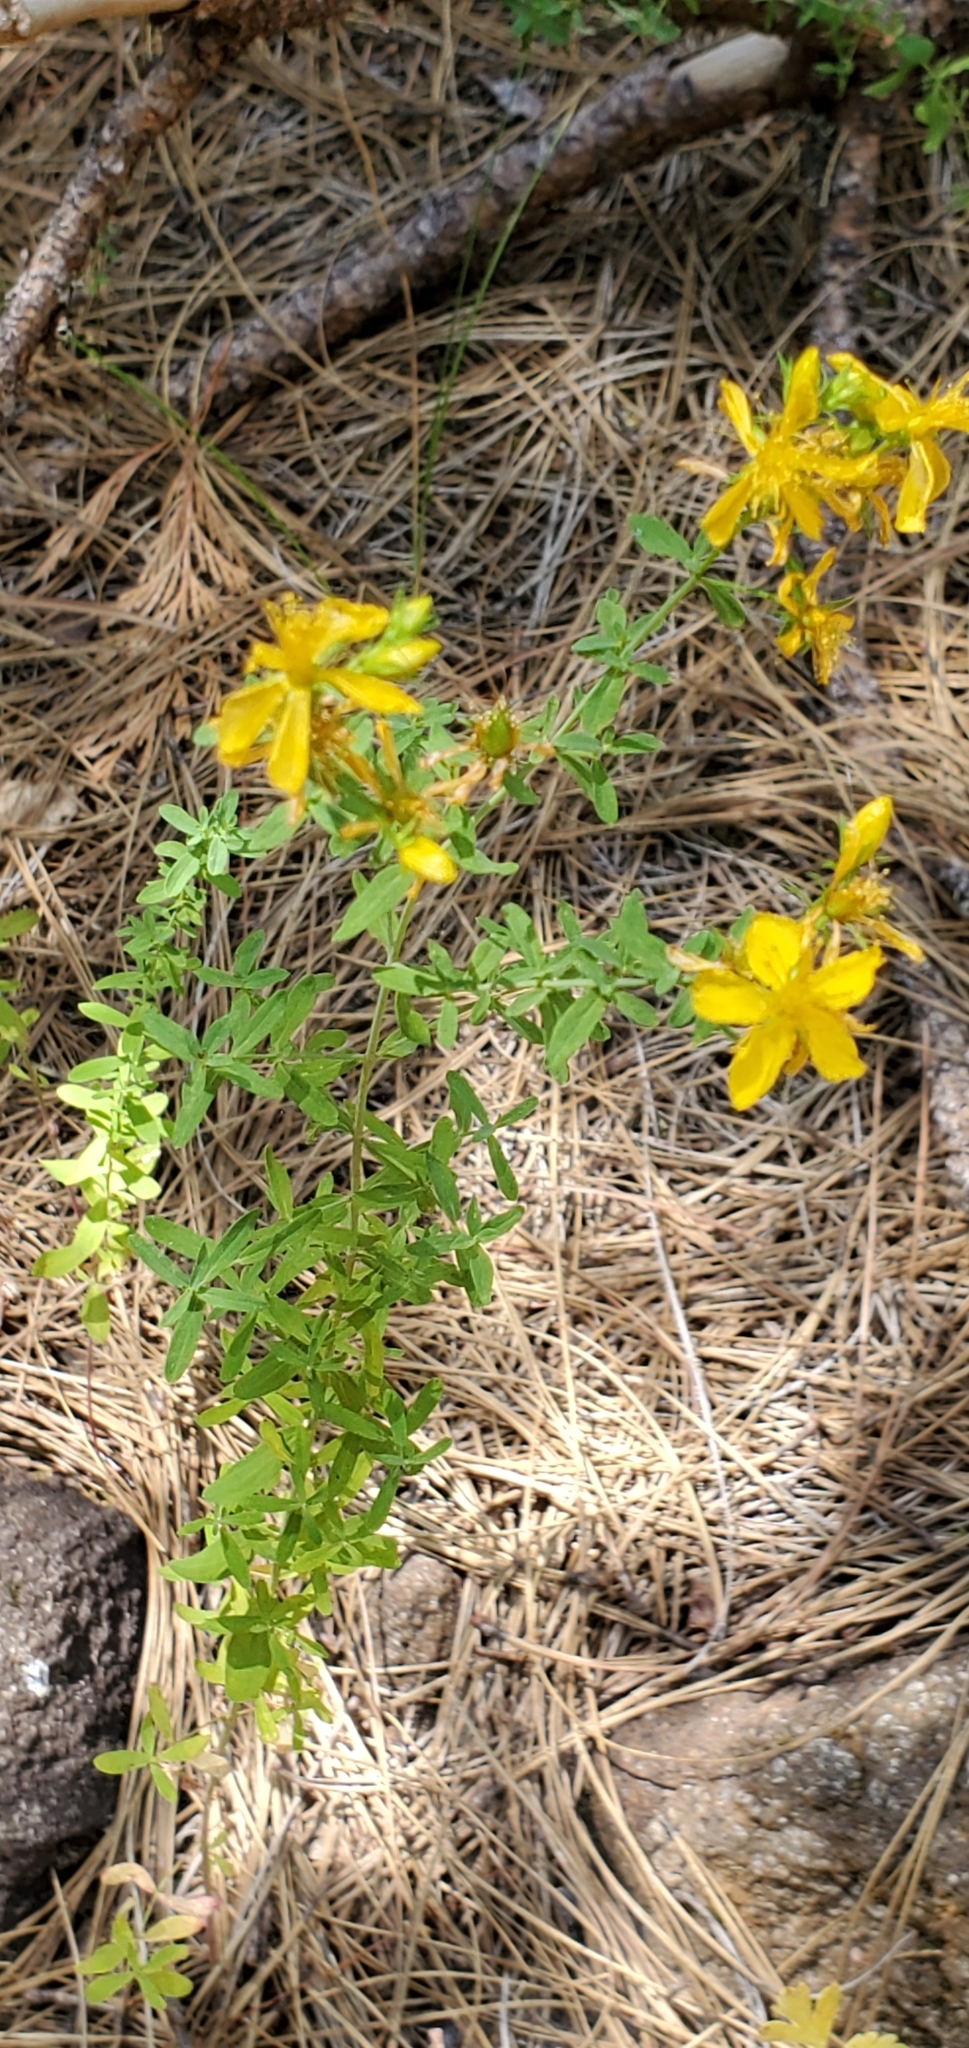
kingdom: Plantae
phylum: Tracheophyta
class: Magnoliopsida
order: Malpighiales
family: Hypericaceae
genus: Hypericum
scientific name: Hypericum perforatum
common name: Common st. johnswort
